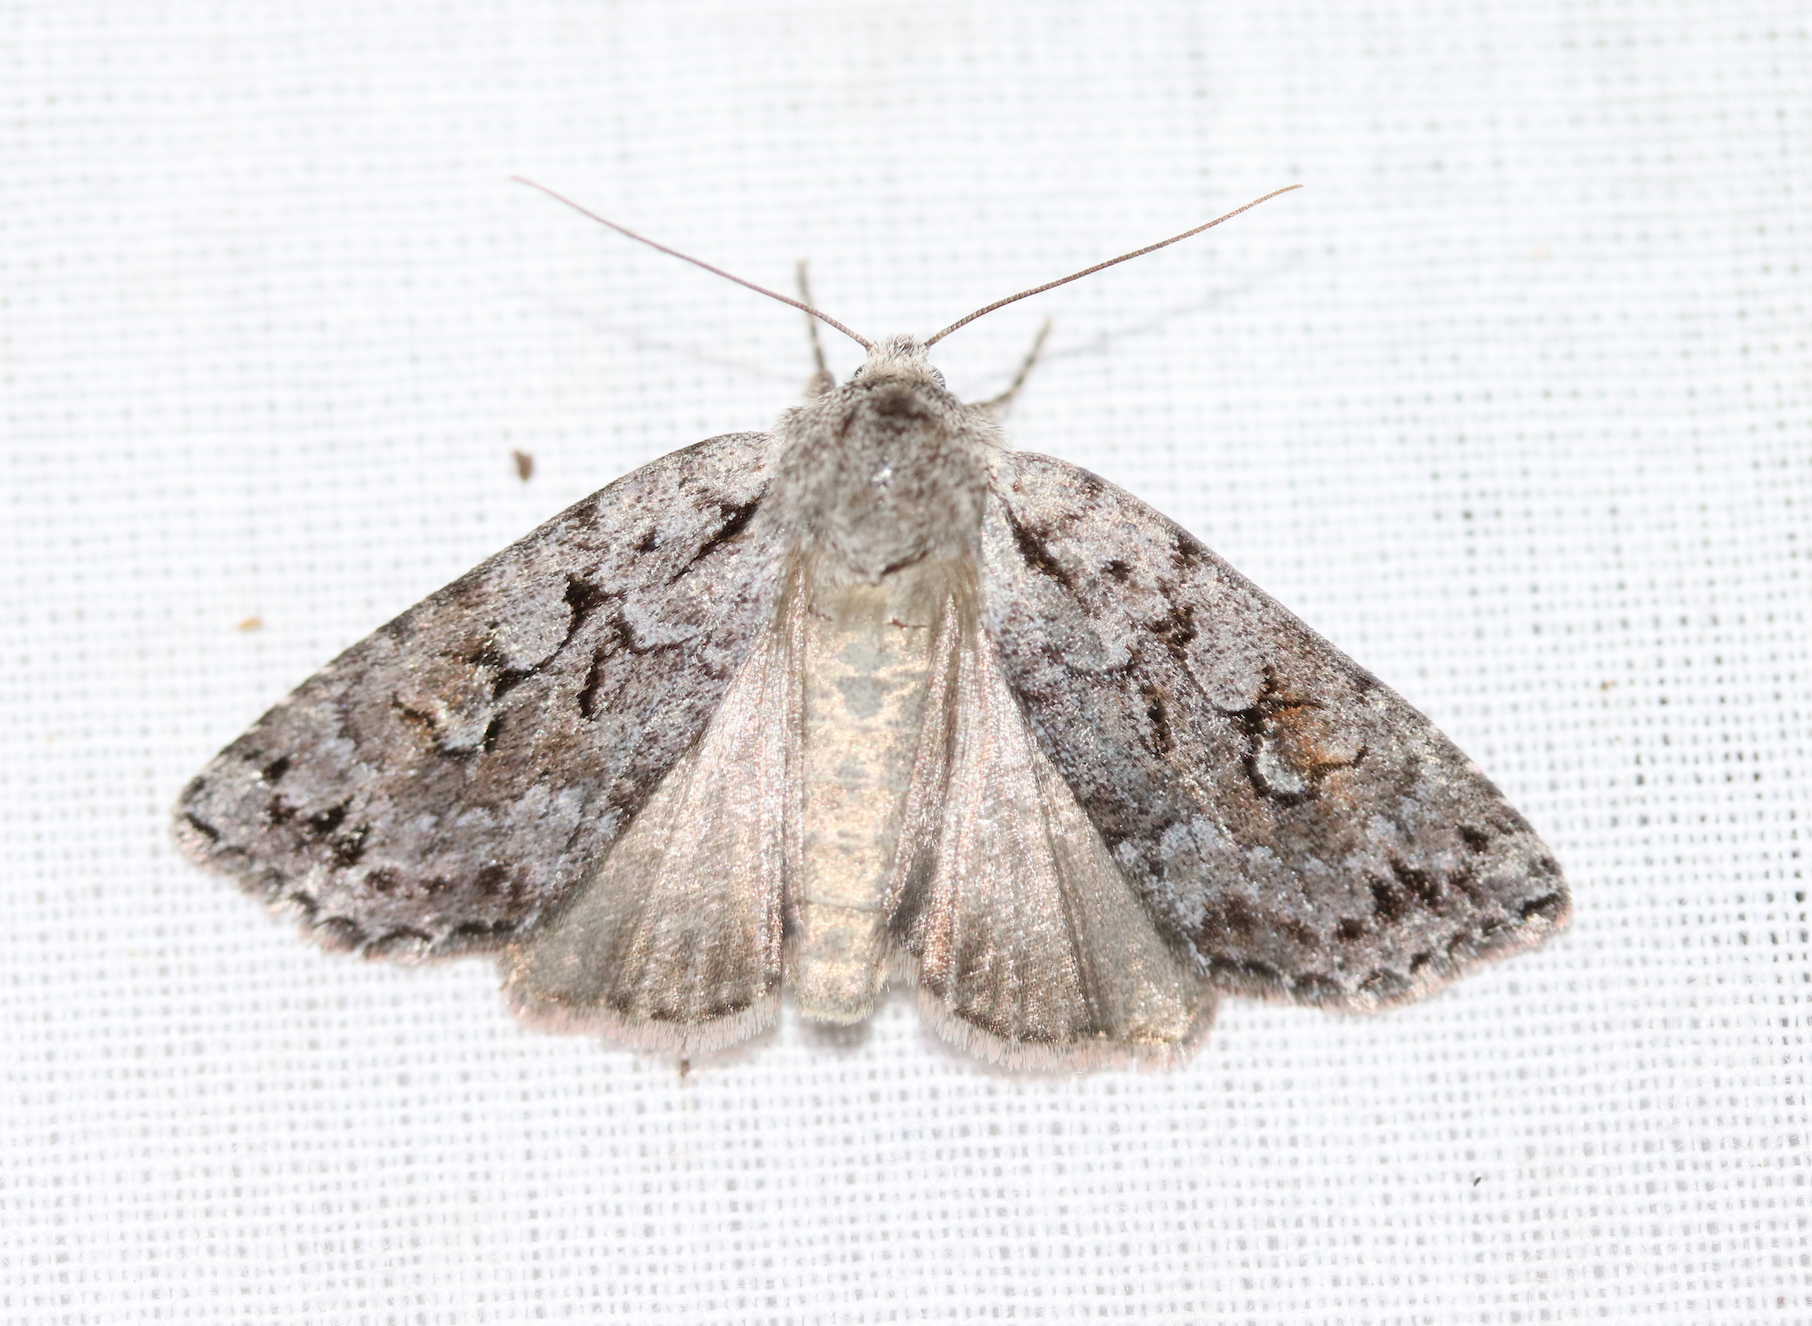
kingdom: Animalia
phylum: Arthropoda
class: Insecta
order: Lepidoptera
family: Noctuidae
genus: Xestia
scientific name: Xestia imperita
